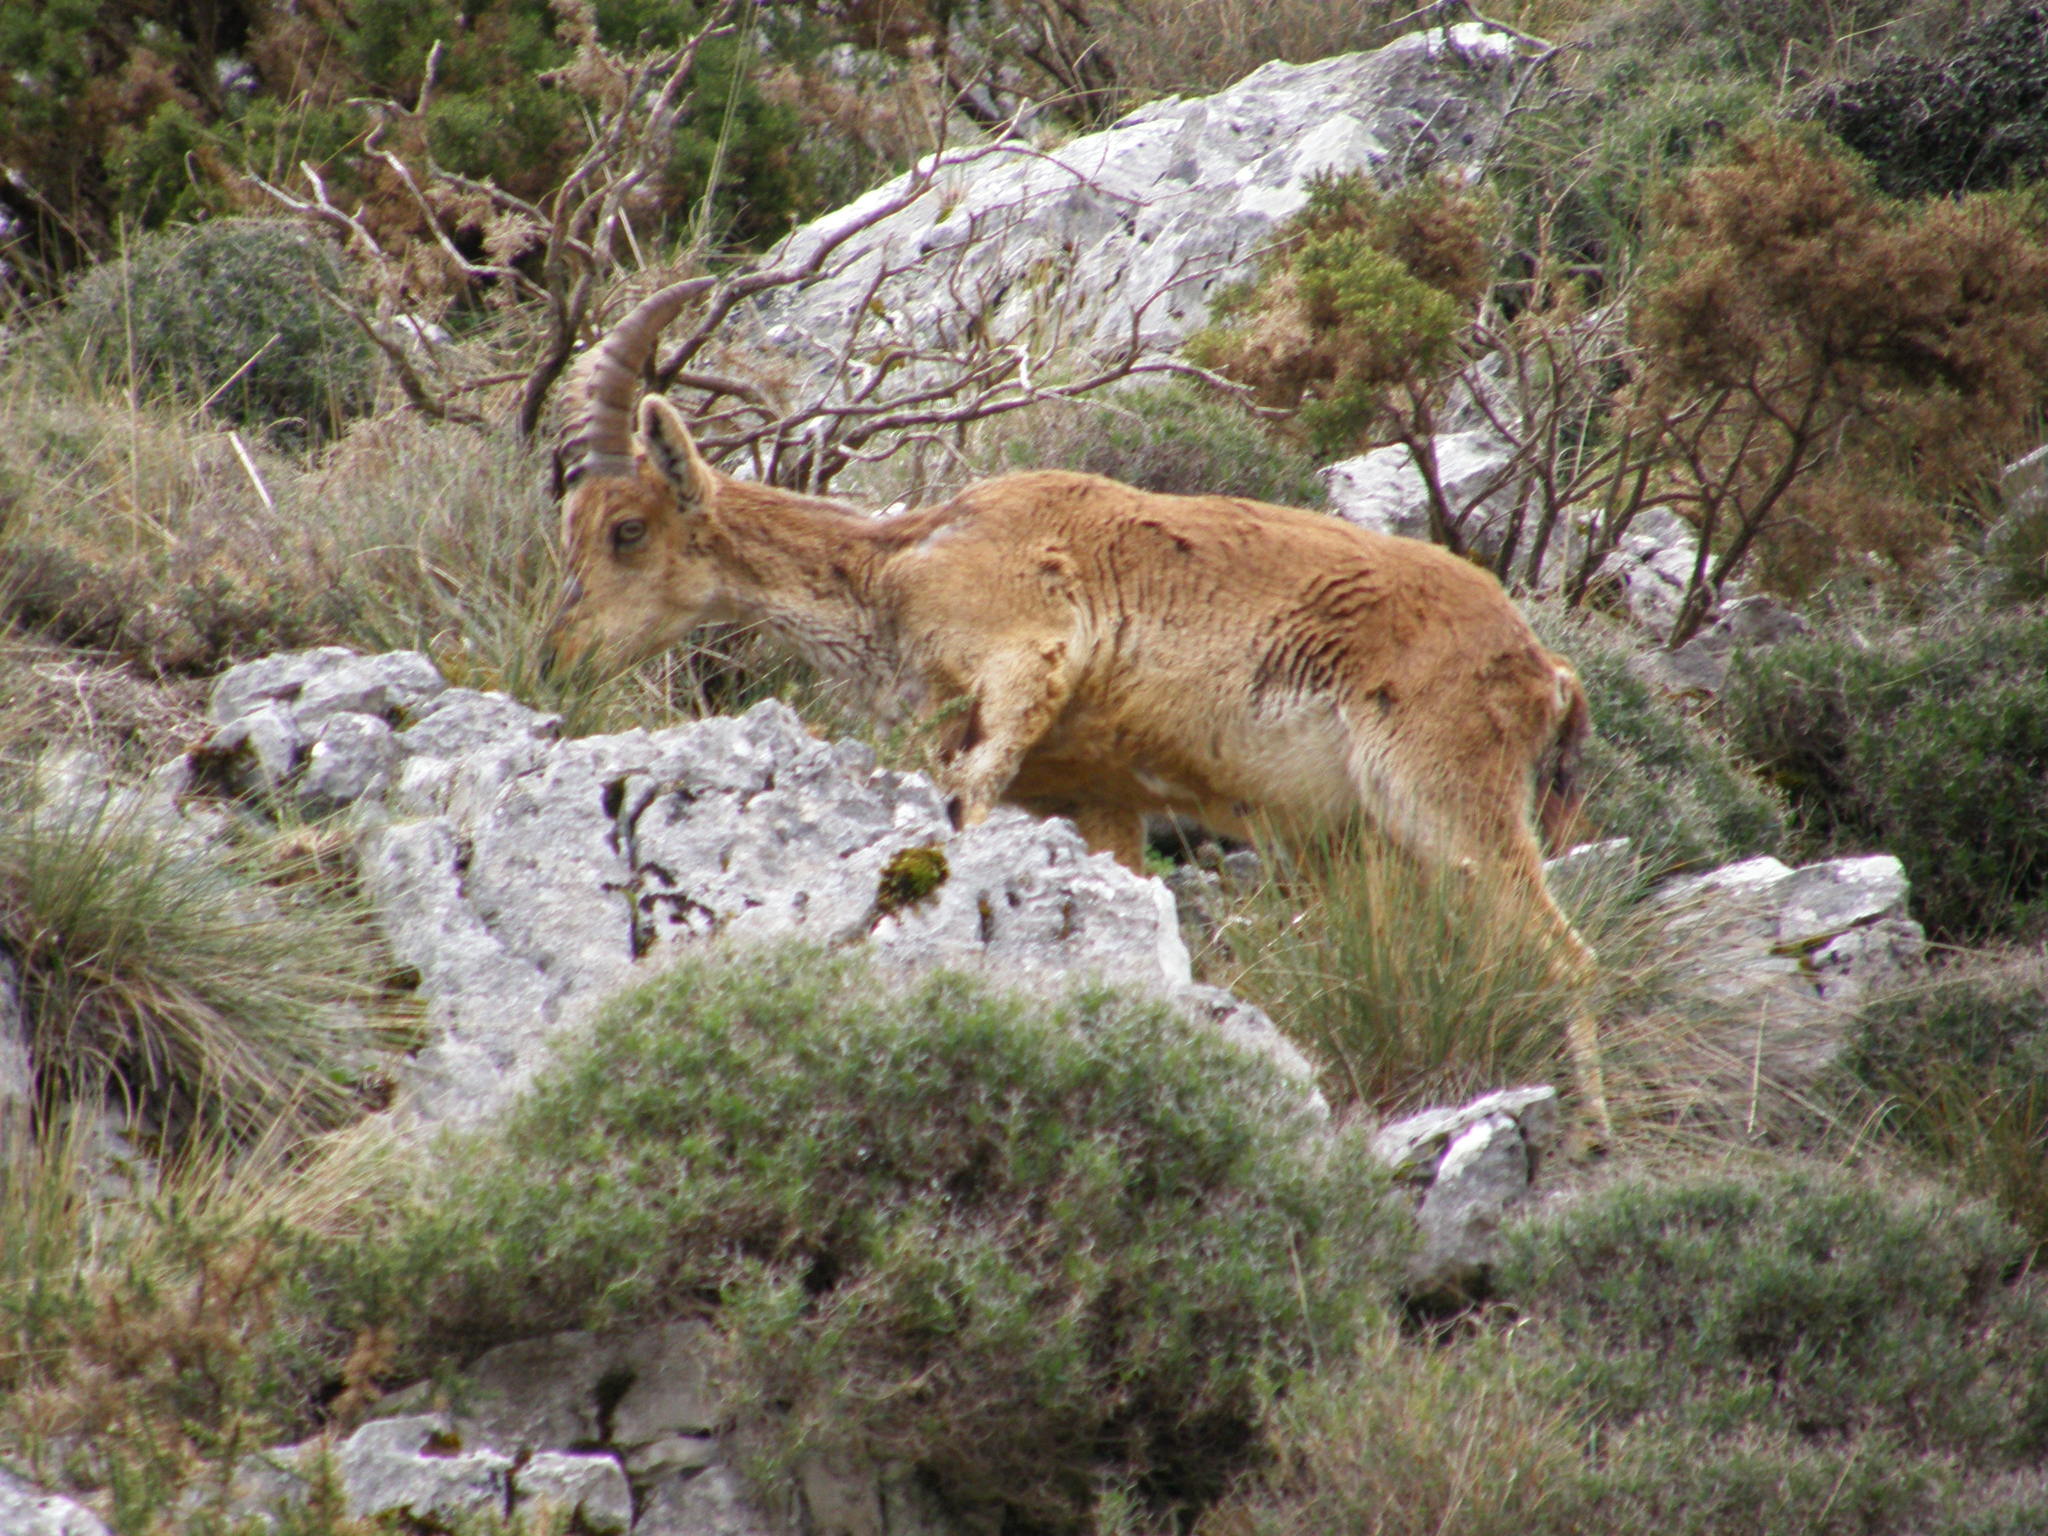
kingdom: Animalia
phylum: Chordata
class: Mammalia
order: Artiodactyla
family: Bovidae
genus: Capra
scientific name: Capra pyrenaica
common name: Spanish ibex
